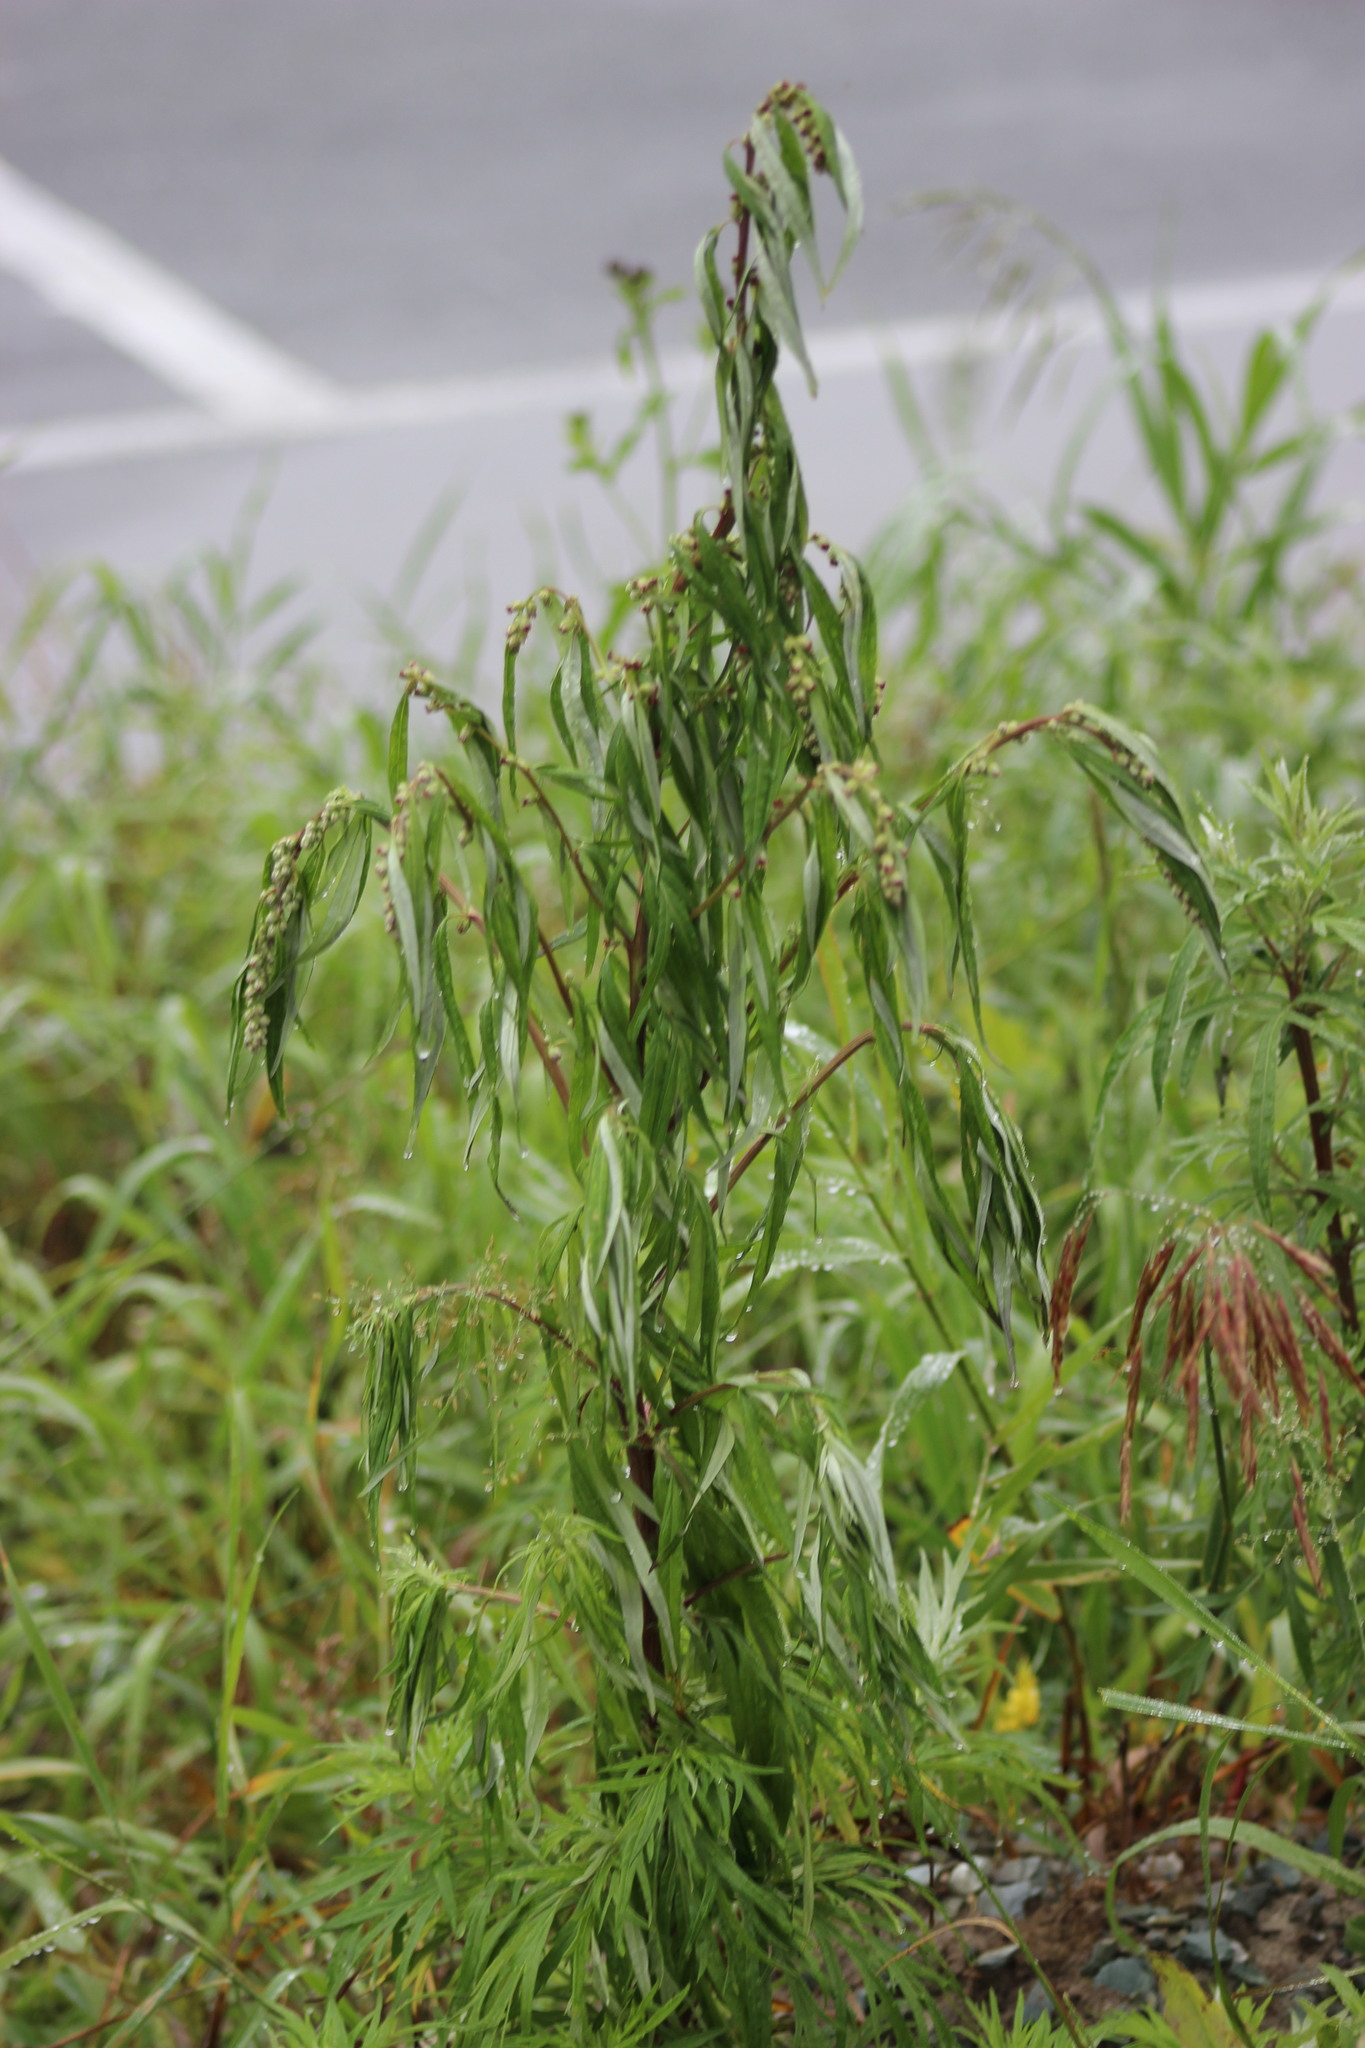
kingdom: Plantae
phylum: Tracheophyta
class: Magnoliopsida
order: Asterales
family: Asteraceae
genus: Artemisia
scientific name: Artemisia vulgaris
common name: Mugwort
